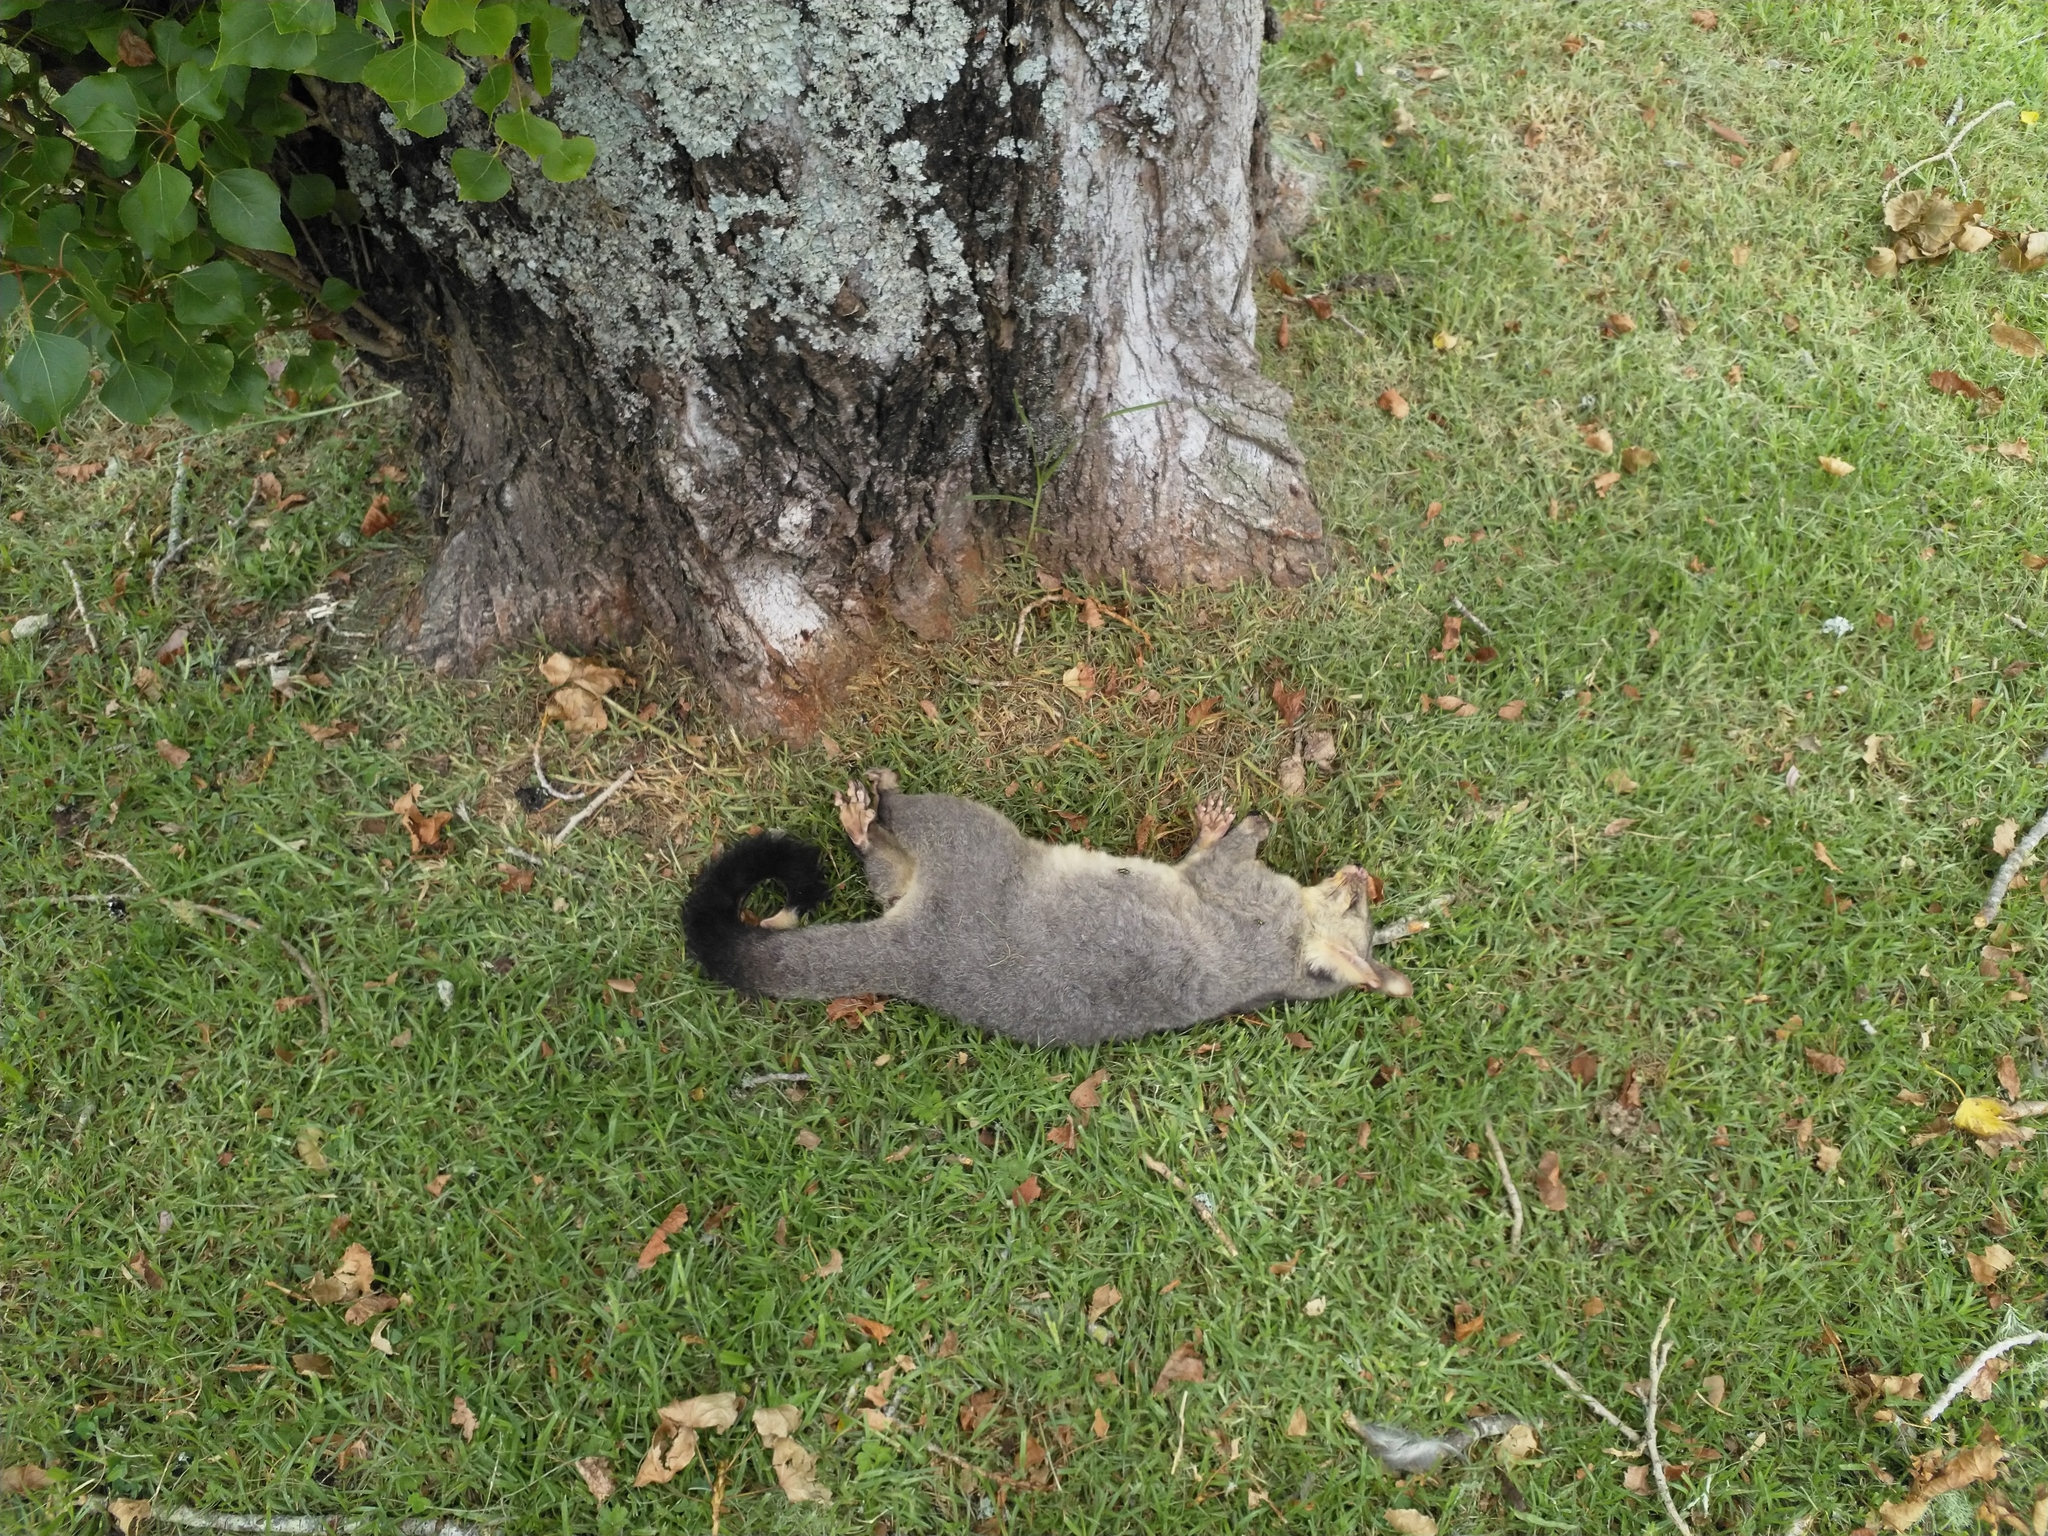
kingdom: Animalia
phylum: Chordata
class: Mammalia
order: Diprotodontia
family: Phalangeridae
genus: Trichosurus
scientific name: Trichosurus vulpecula
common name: Common brushtail
